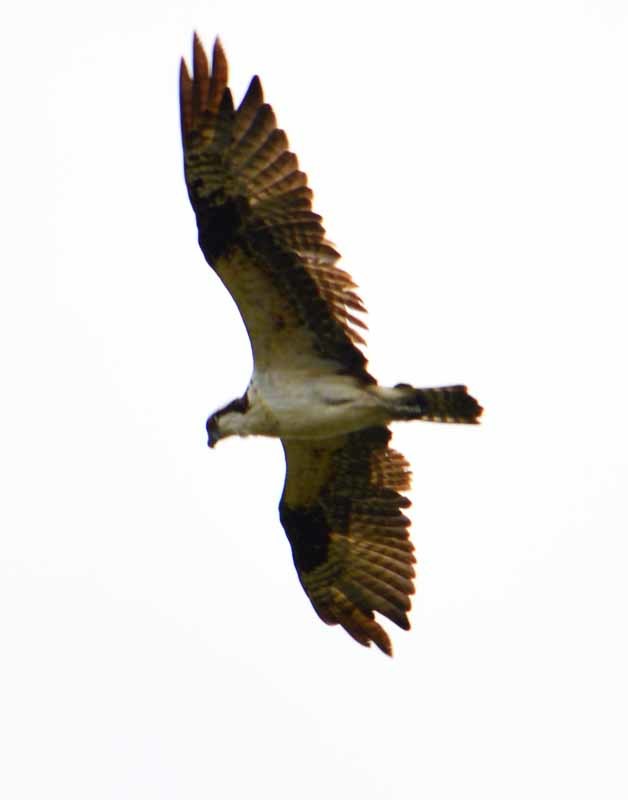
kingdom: Animalia
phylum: Chordata
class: Aves
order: Accipitriformes
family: Pandionidae
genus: Pandion
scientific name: Pandion haliaetus
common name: Osprey
